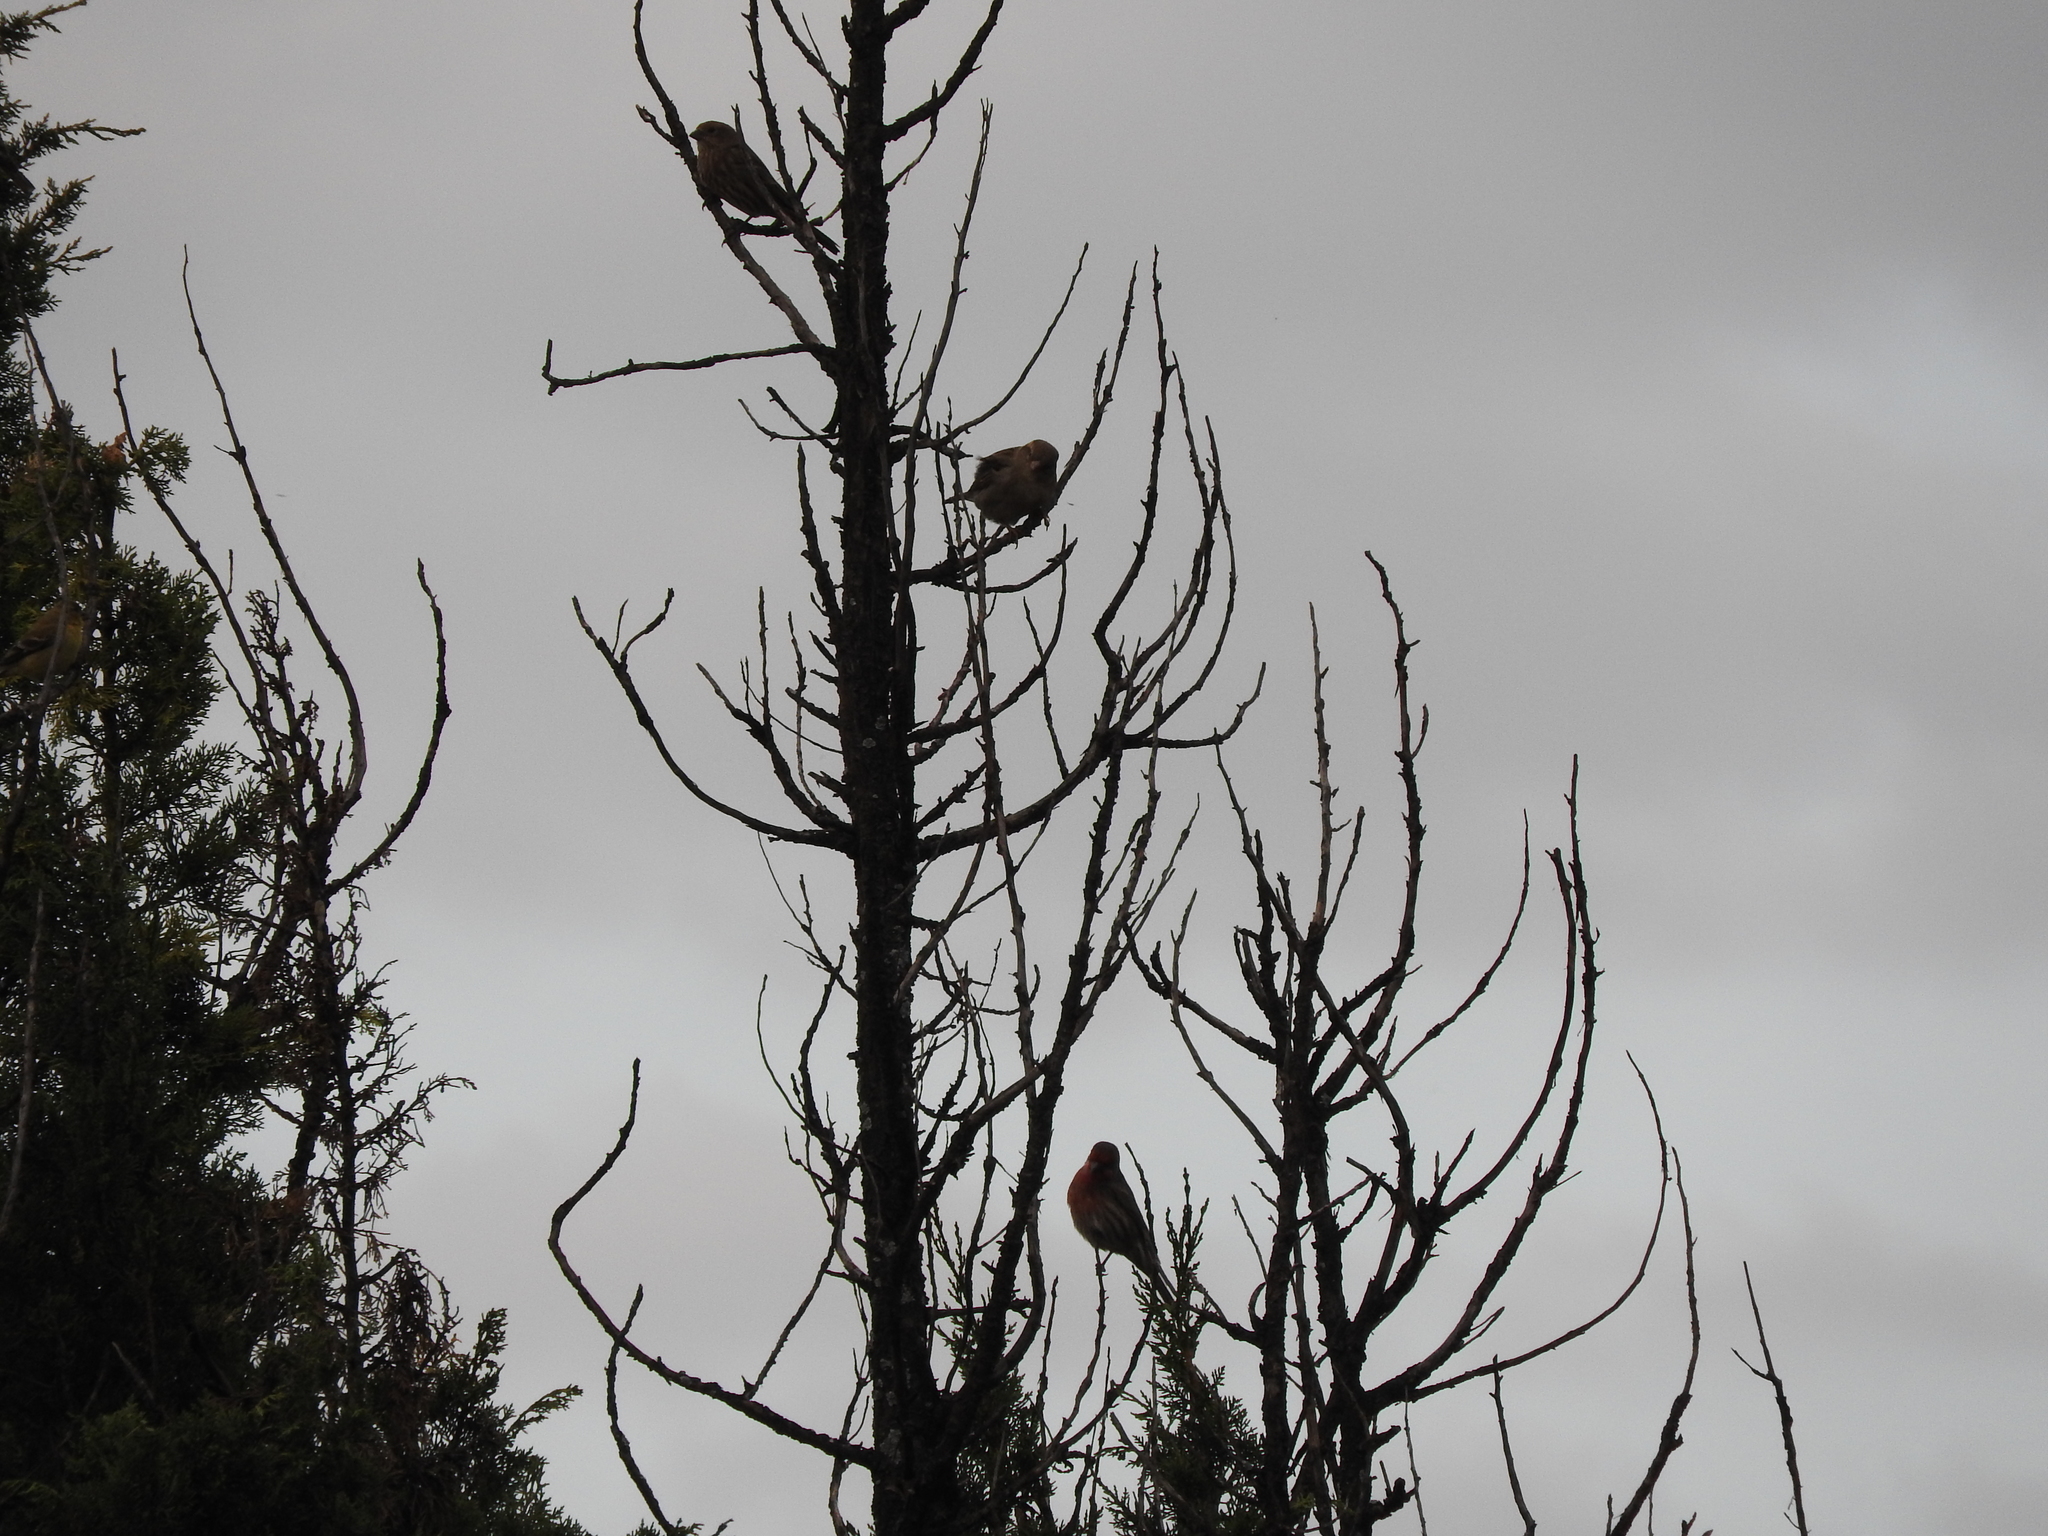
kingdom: Animalia
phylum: Chordata
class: Aves
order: Passeriformes
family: Fringillidae
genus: Haemorhous
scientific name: Haemorhous mexicanus
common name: House finch
